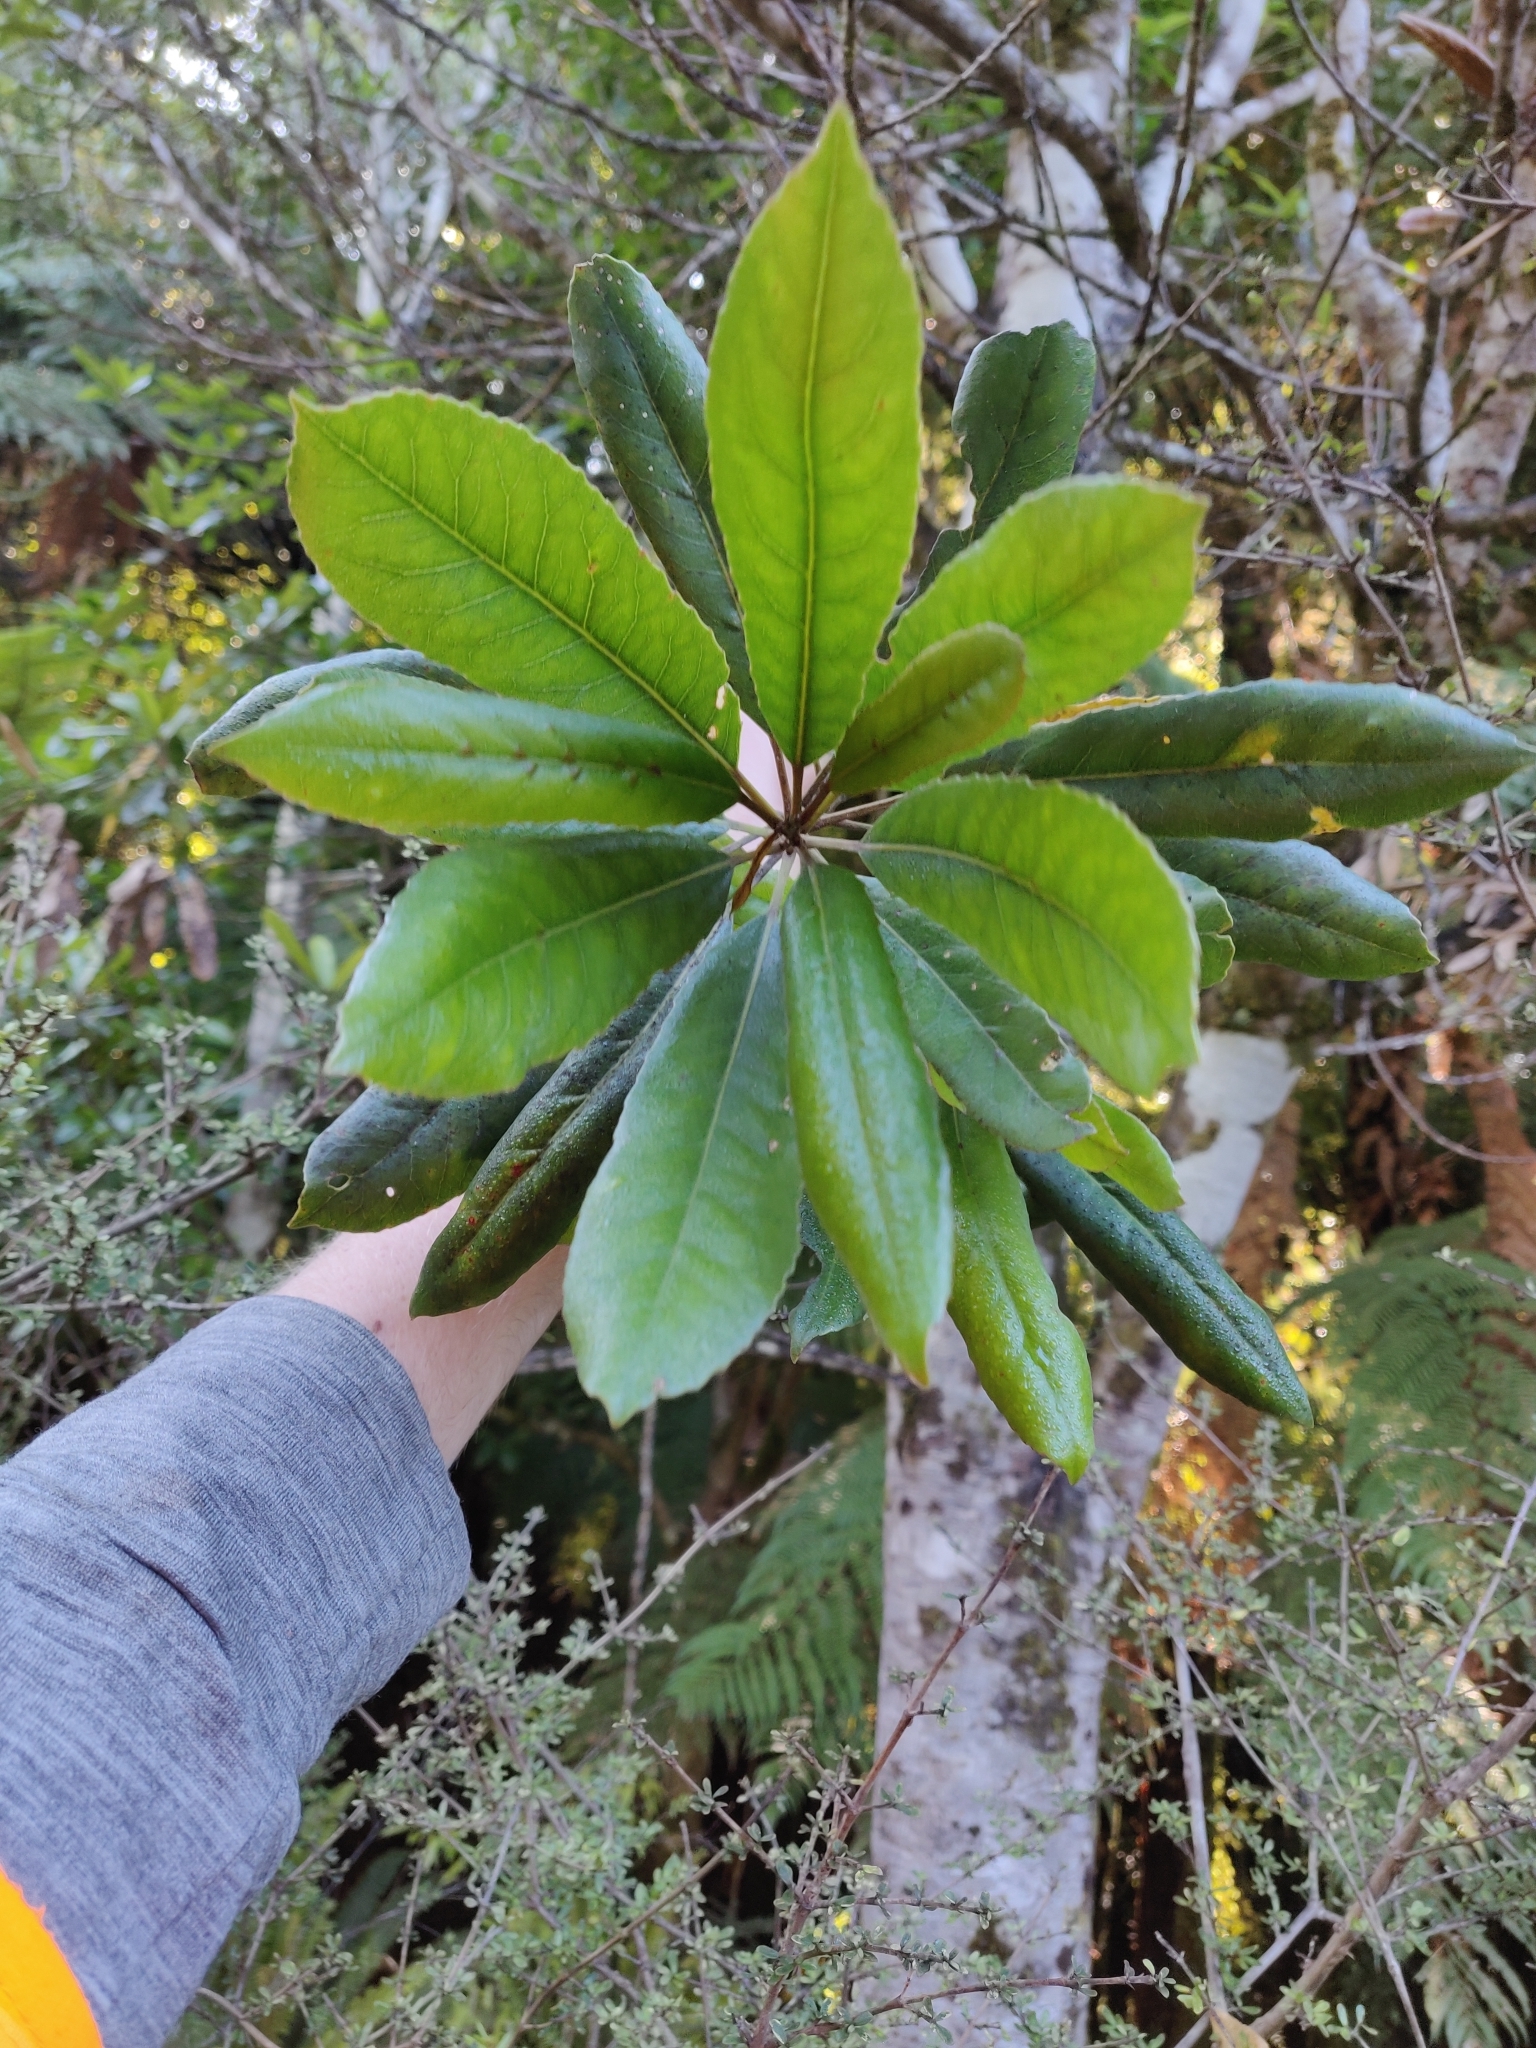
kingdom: Plantae
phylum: Tracheophyta
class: Magnoliopsida
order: Oxalidales
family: Elaeocarpaceae
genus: Elaeocarpus
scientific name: Elaeocarpus dentatus
